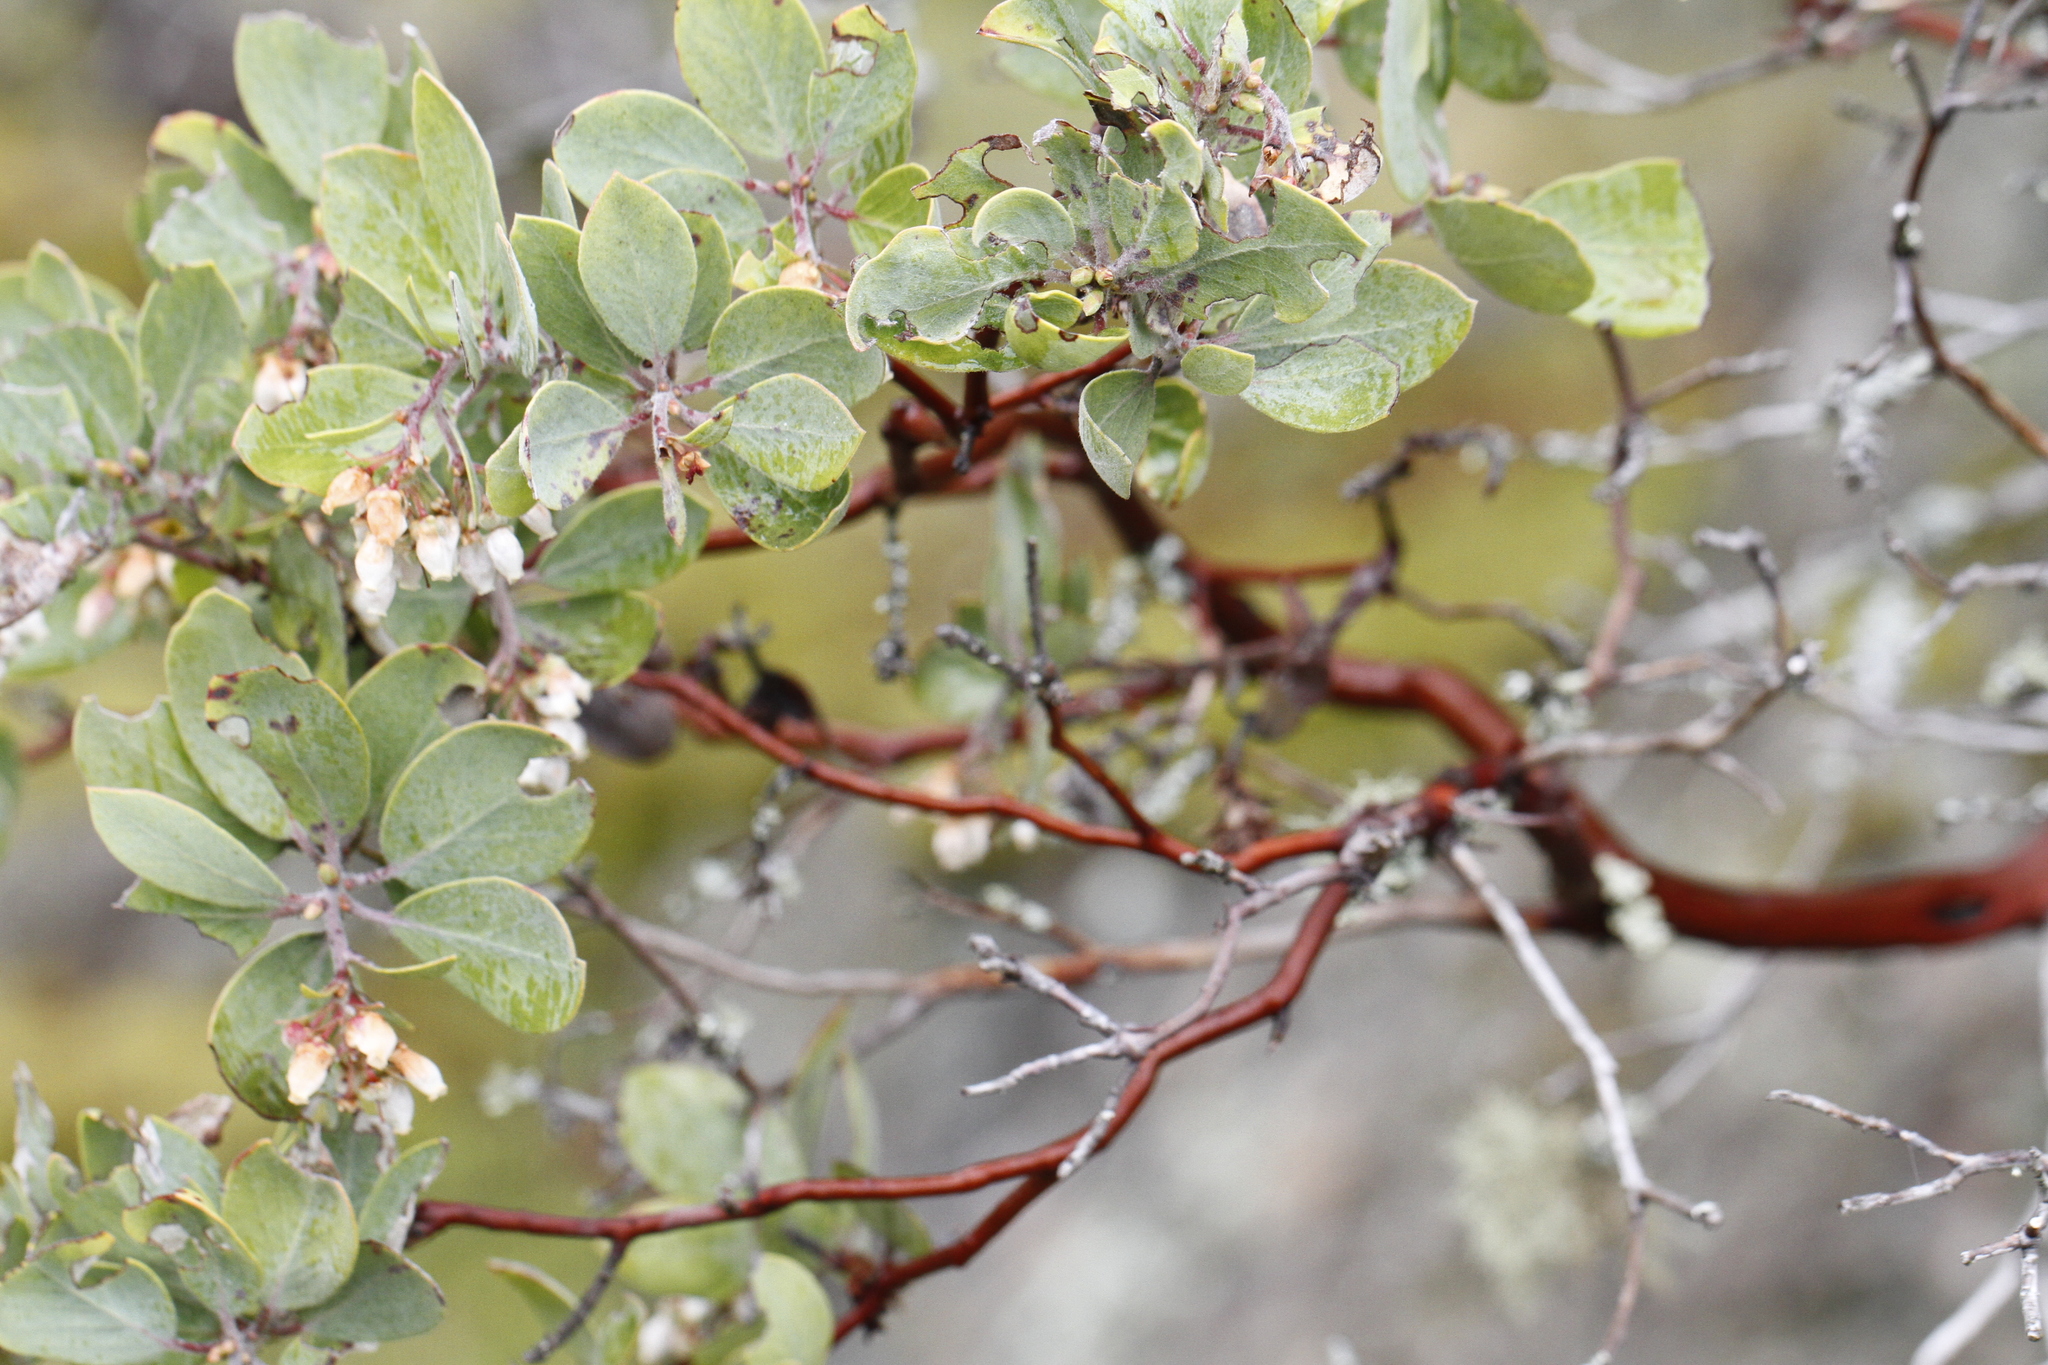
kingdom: Plantae
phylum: Tracheophyta
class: Magnoliopsida
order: Ericales
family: Ericaceae
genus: Arctostaphylos
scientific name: Arctostaphylos columbiana
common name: Bristly bearberry
